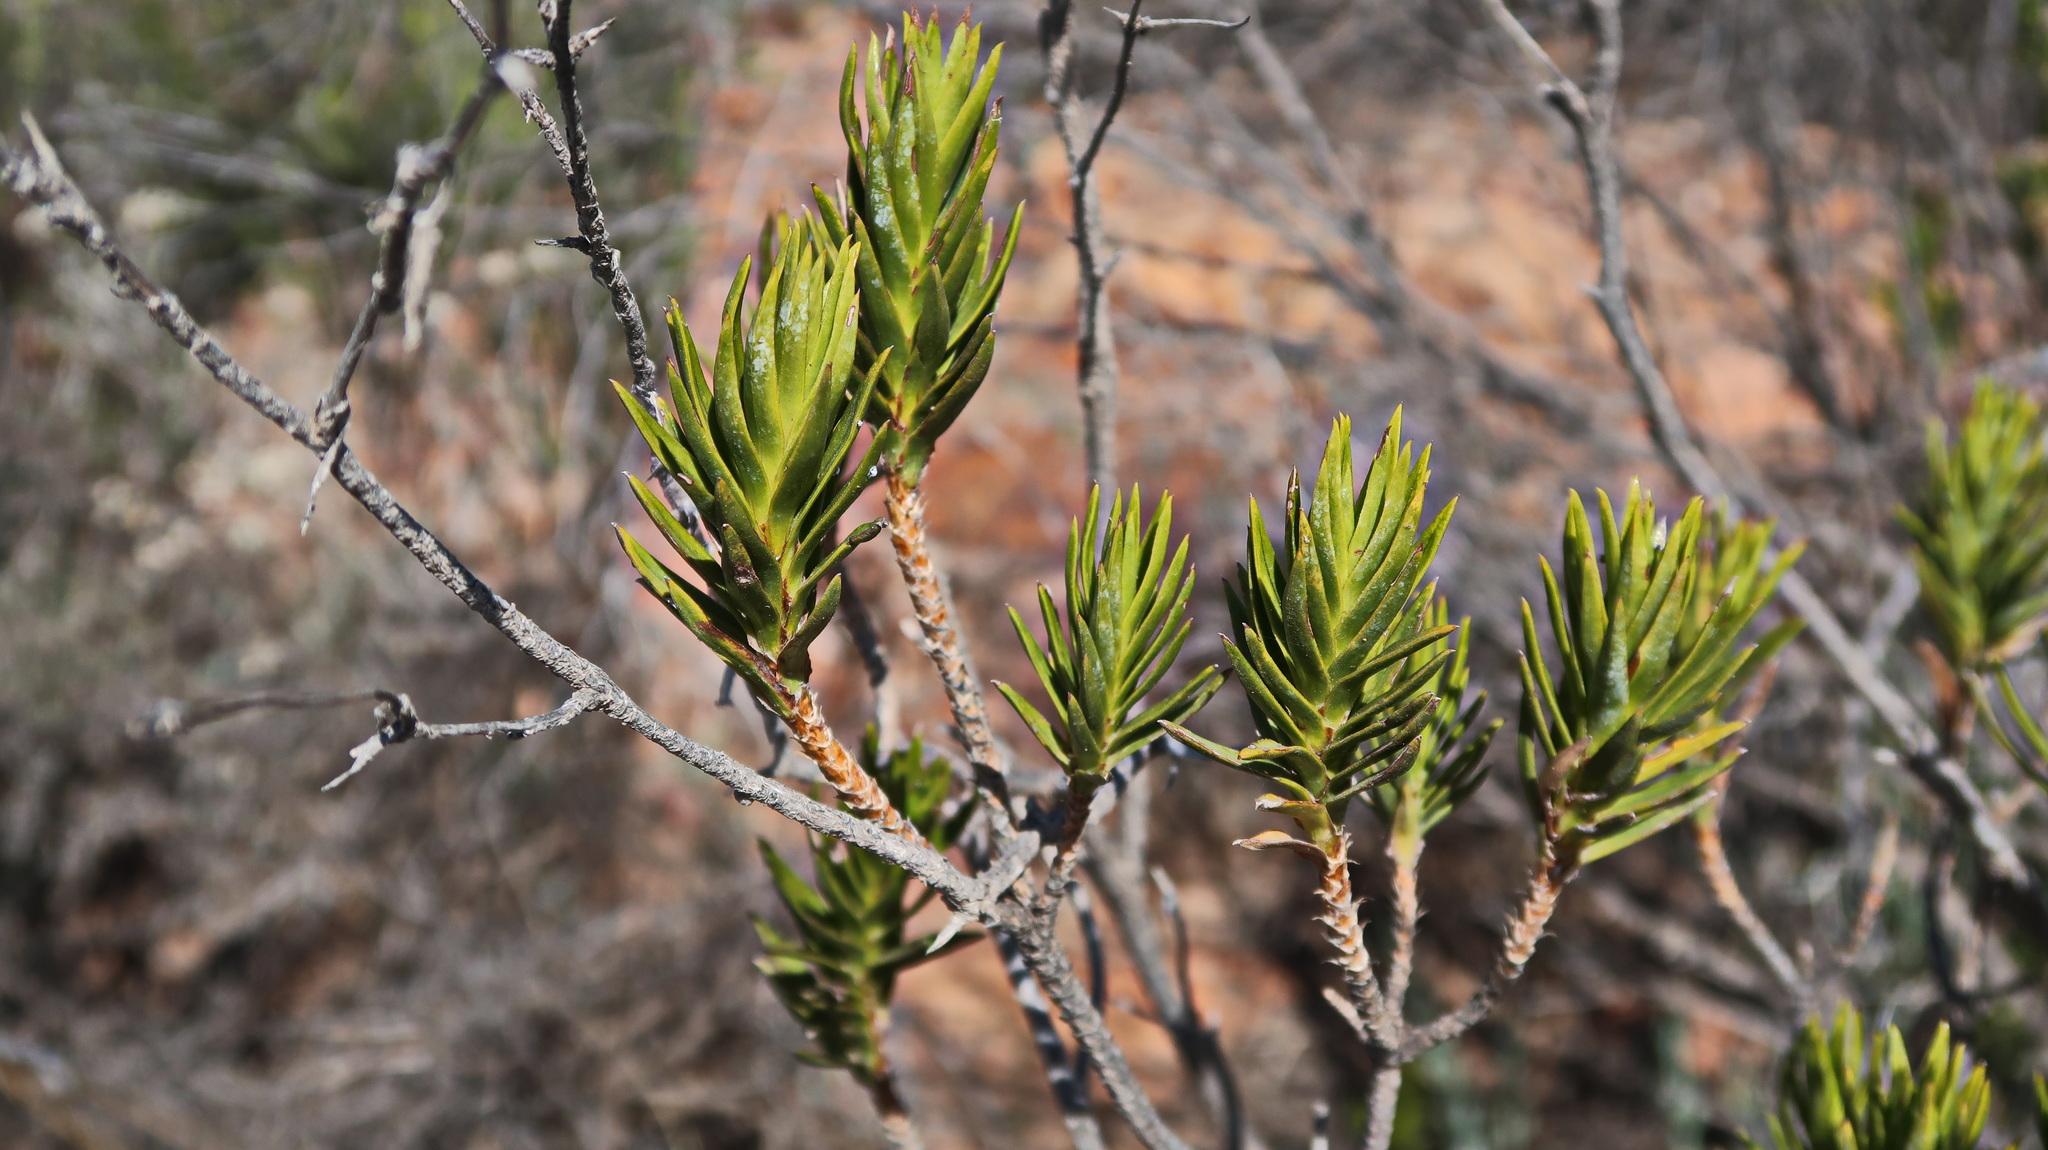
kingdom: Plantae
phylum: Tracheophyta
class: Magnoliopsida
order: Asterales
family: Asteraceae
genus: Pteronia
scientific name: Pteronia fasciculata
